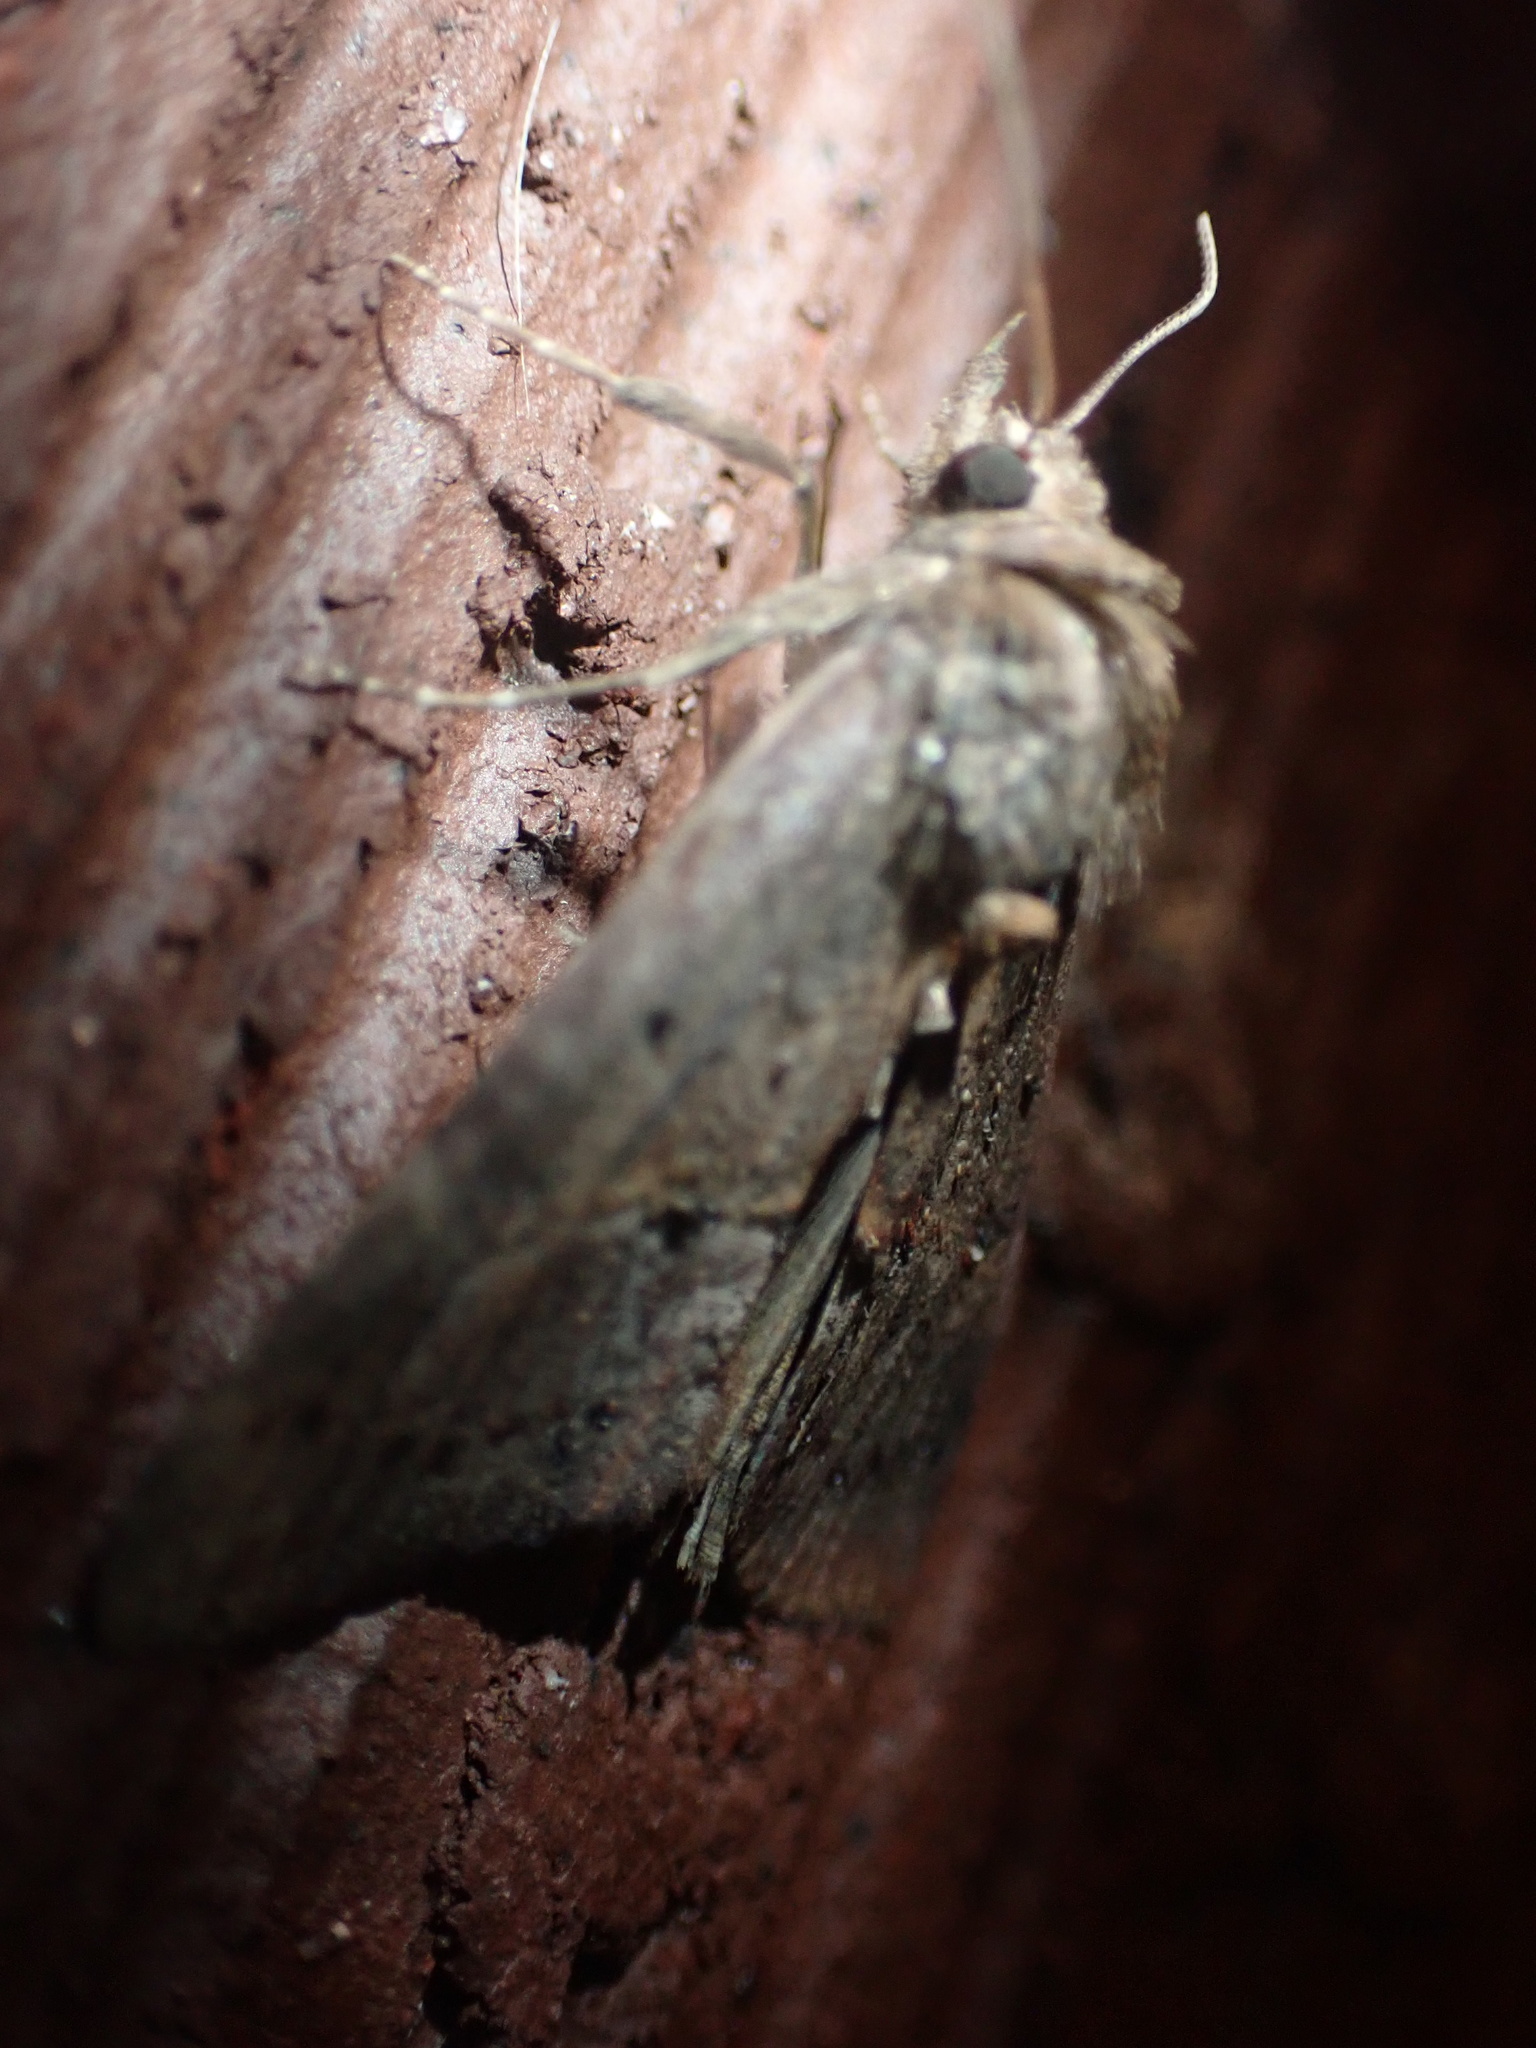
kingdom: Animalia
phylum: Arthropoda
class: Insecta
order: Lepidoptera
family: Erebidae
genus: Hypena
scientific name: Hypena scabra
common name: Green cloverworm
